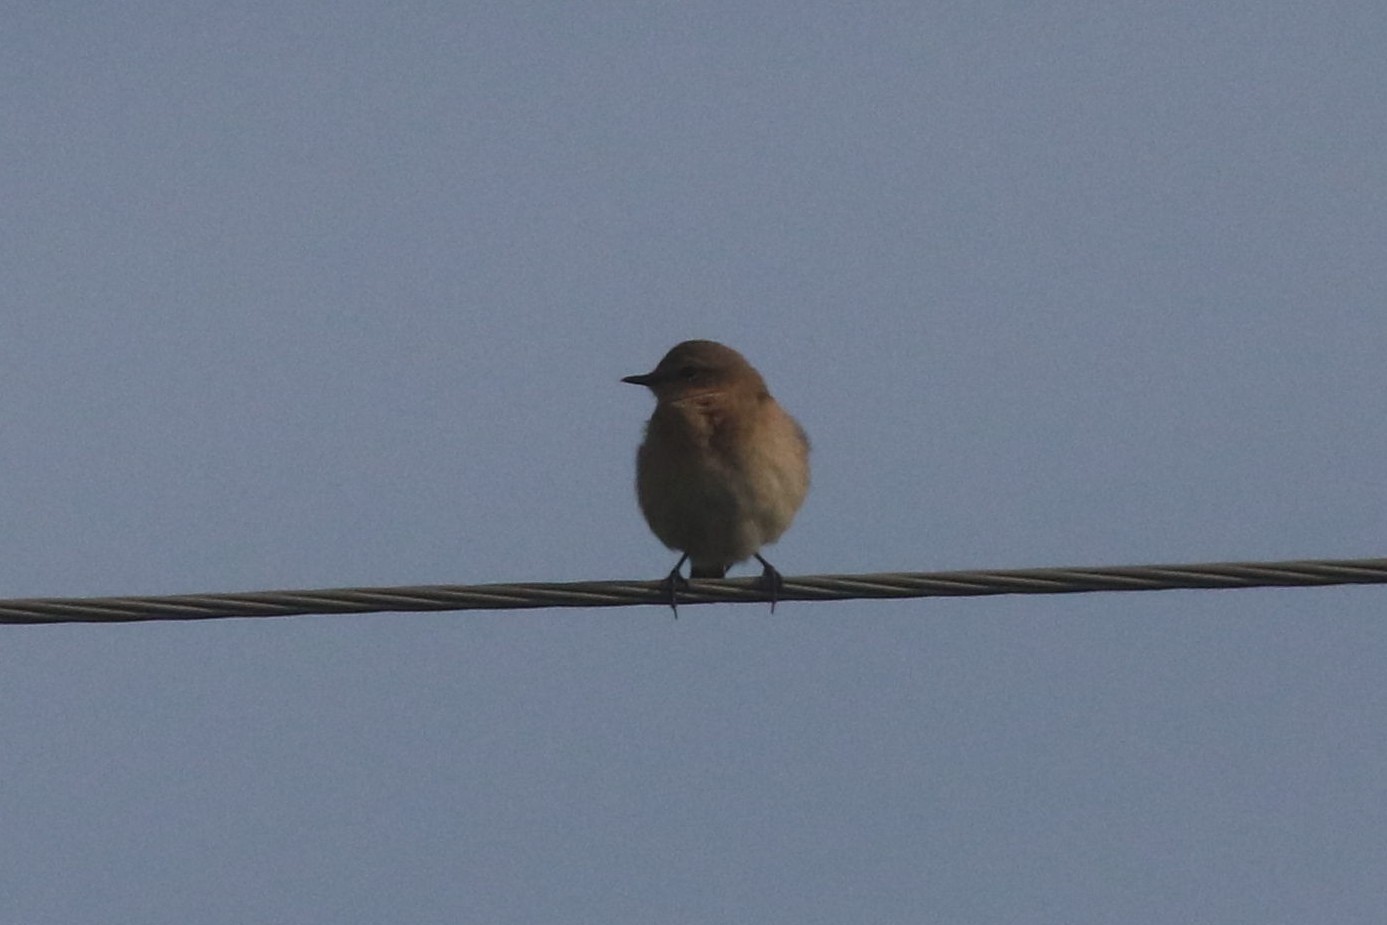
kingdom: Animalia
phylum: Chordata
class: Aves
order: Passeriformes
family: Muscicapidae
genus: Oenanthe
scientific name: Oenanthe oenanthe
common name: Northern wheatear
